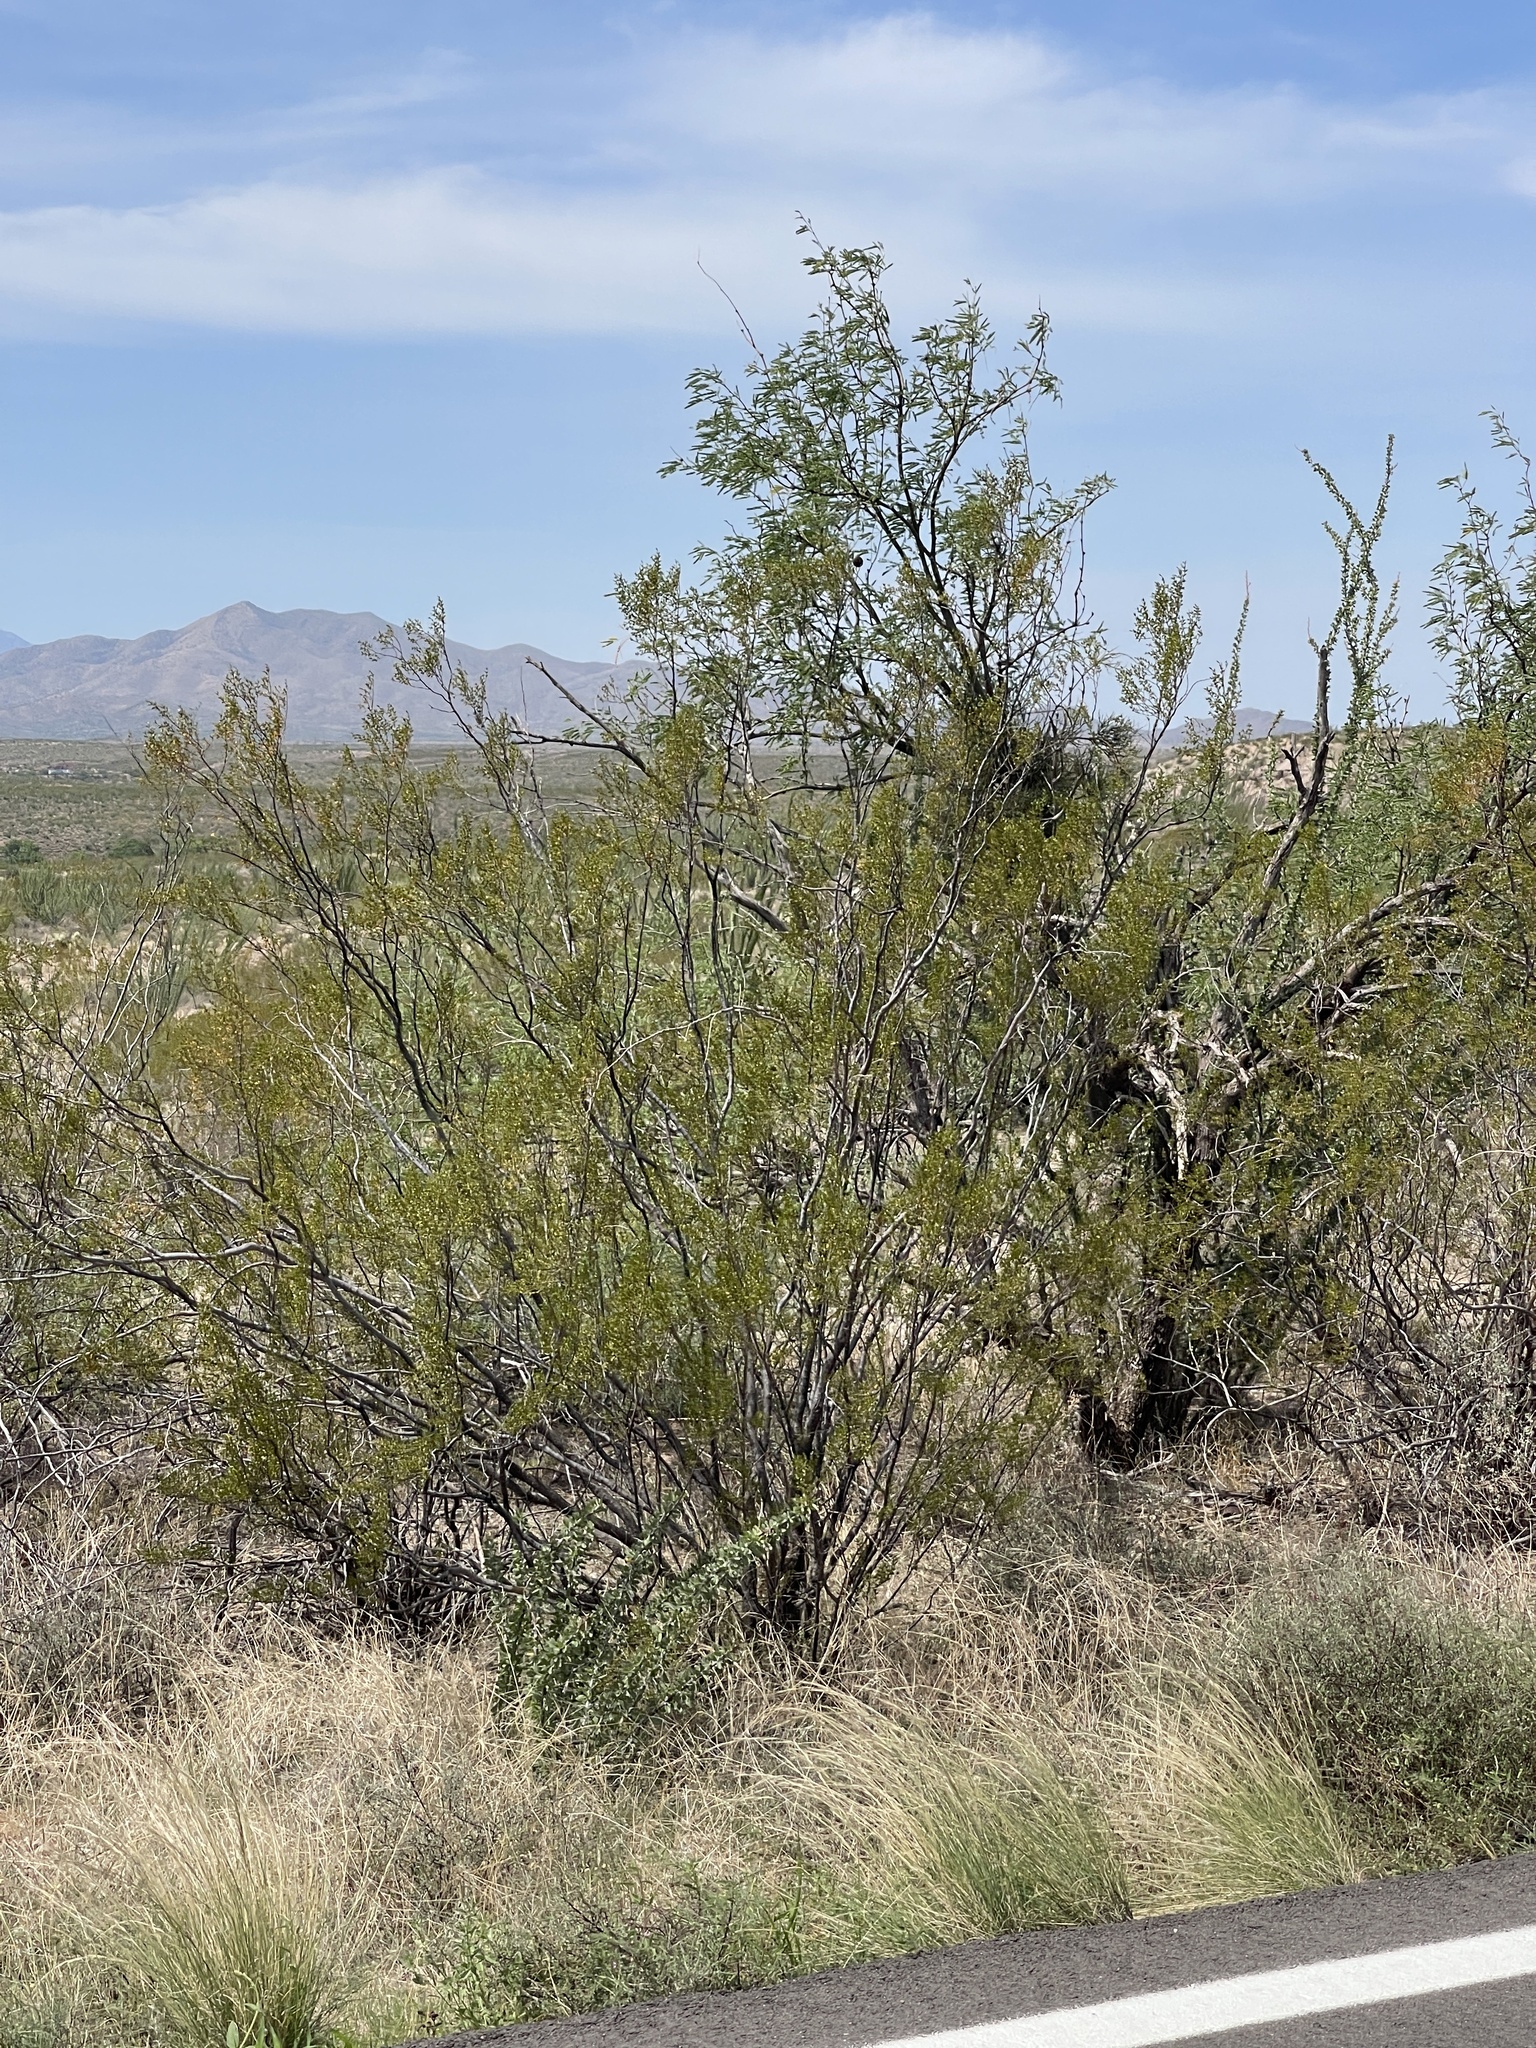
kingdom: Plantae
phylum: Tracheophyta
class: Magnoliopsida
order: Zygophyllales
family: Zygophyllaceae
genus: Larrea
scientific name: Larrea tridentata
